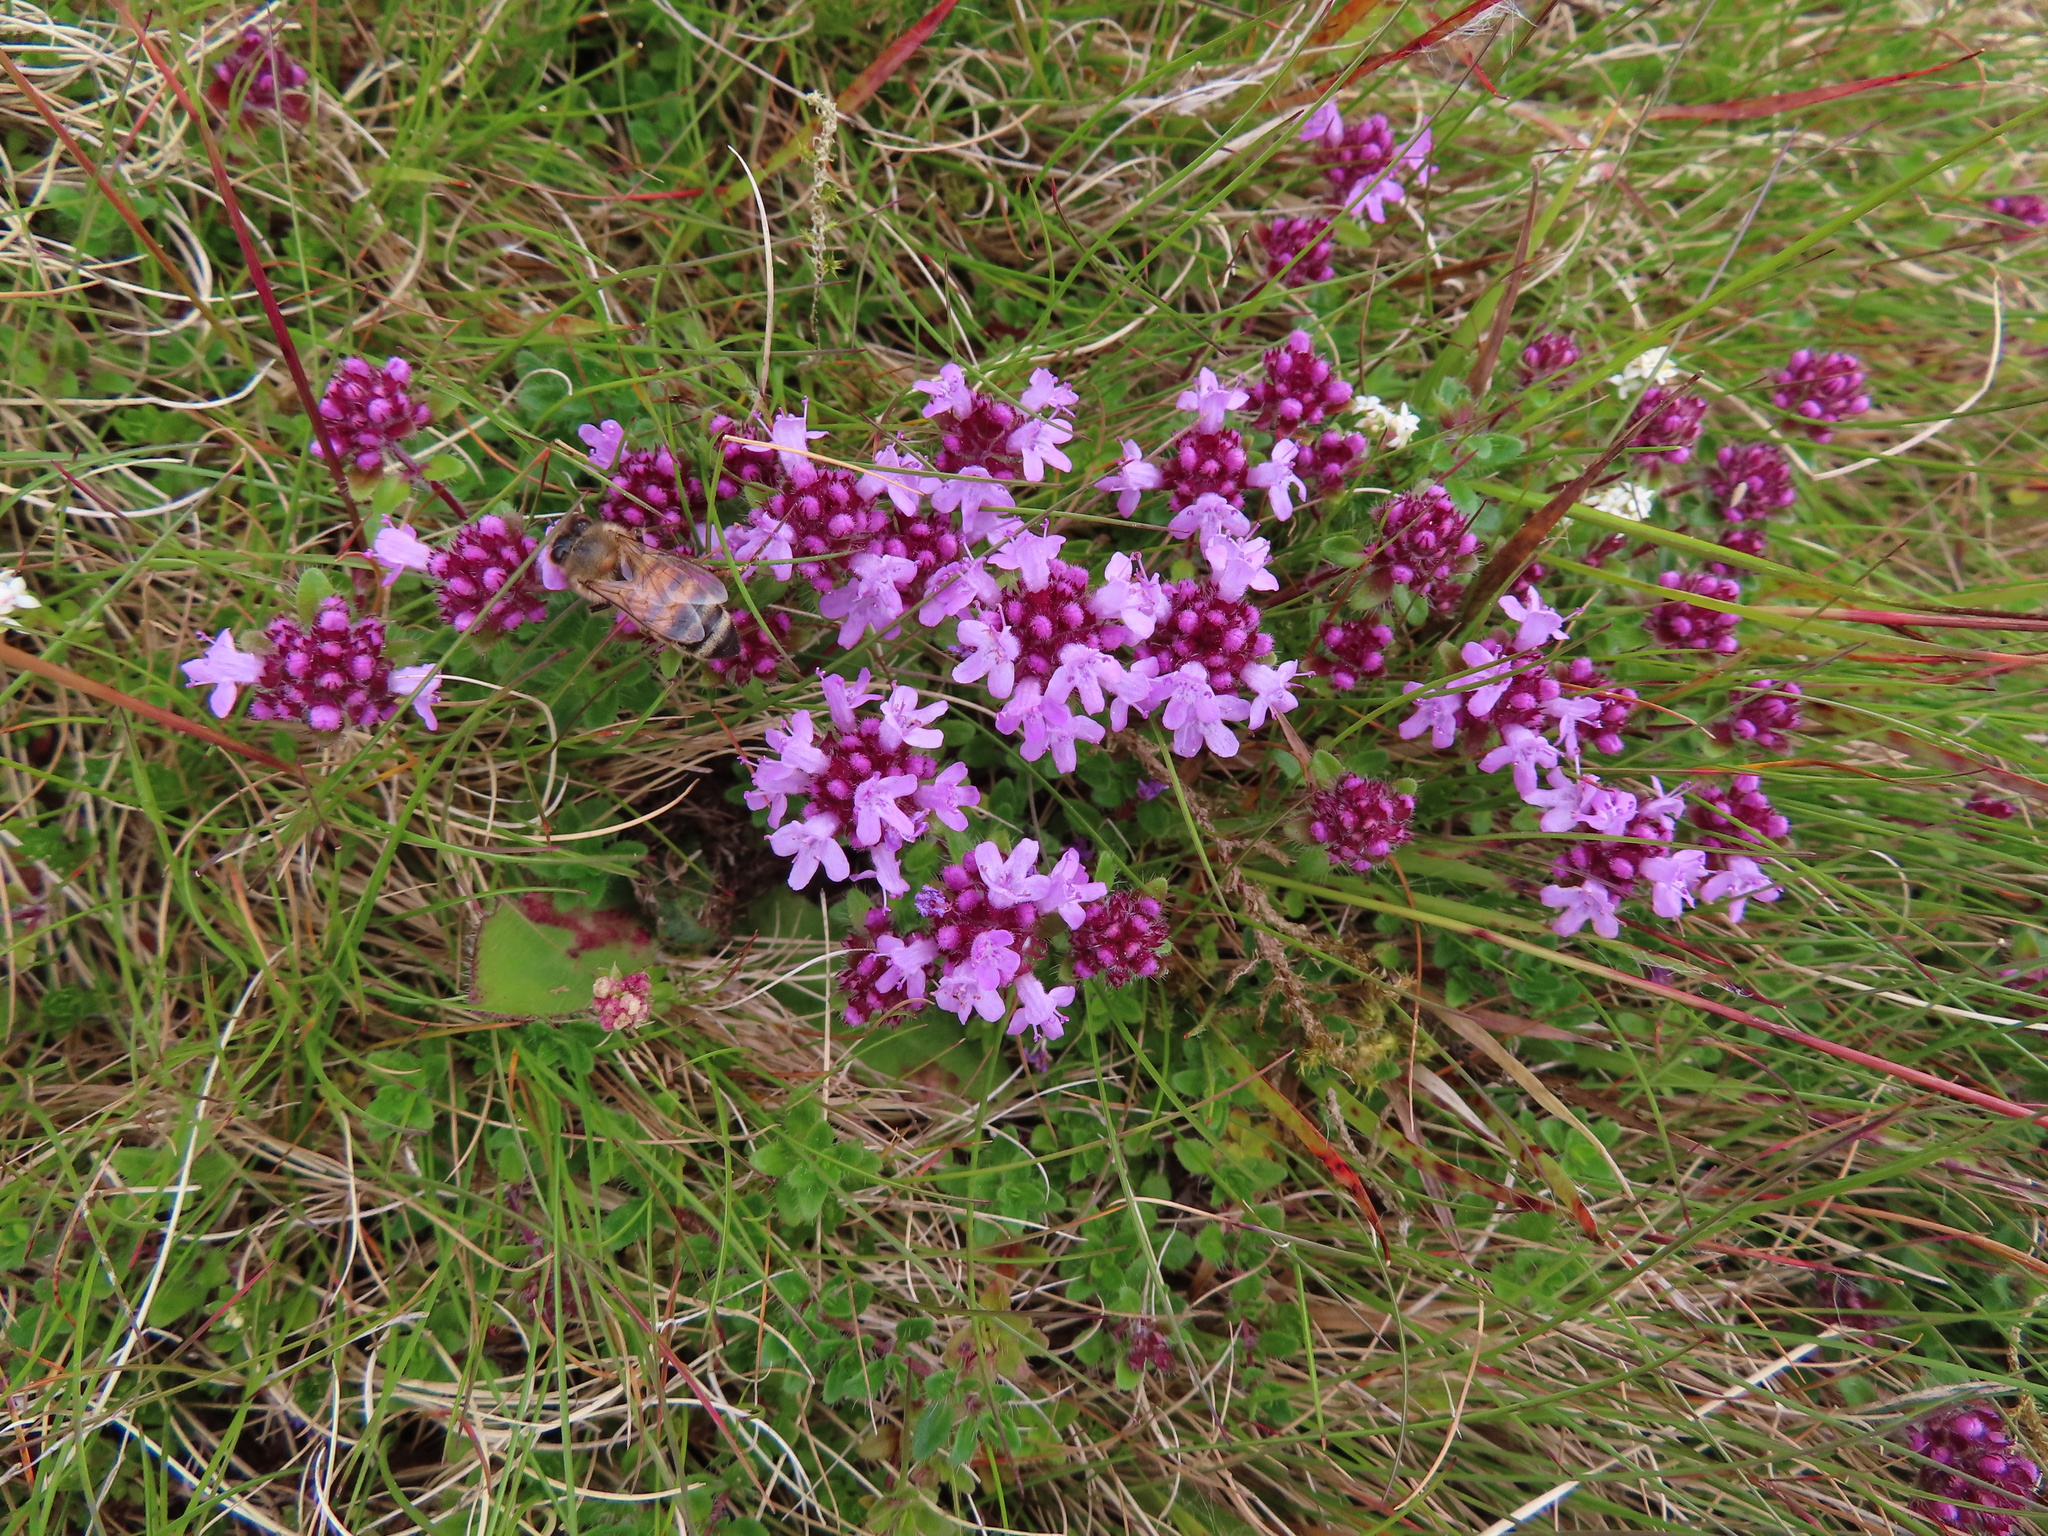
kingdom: Plantae
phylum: Tracheophyta
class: Magnoliopsida
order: Lamiales
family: Lamiaceae
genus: Thymus
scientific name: Thymus praecox
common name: Wild thyme
